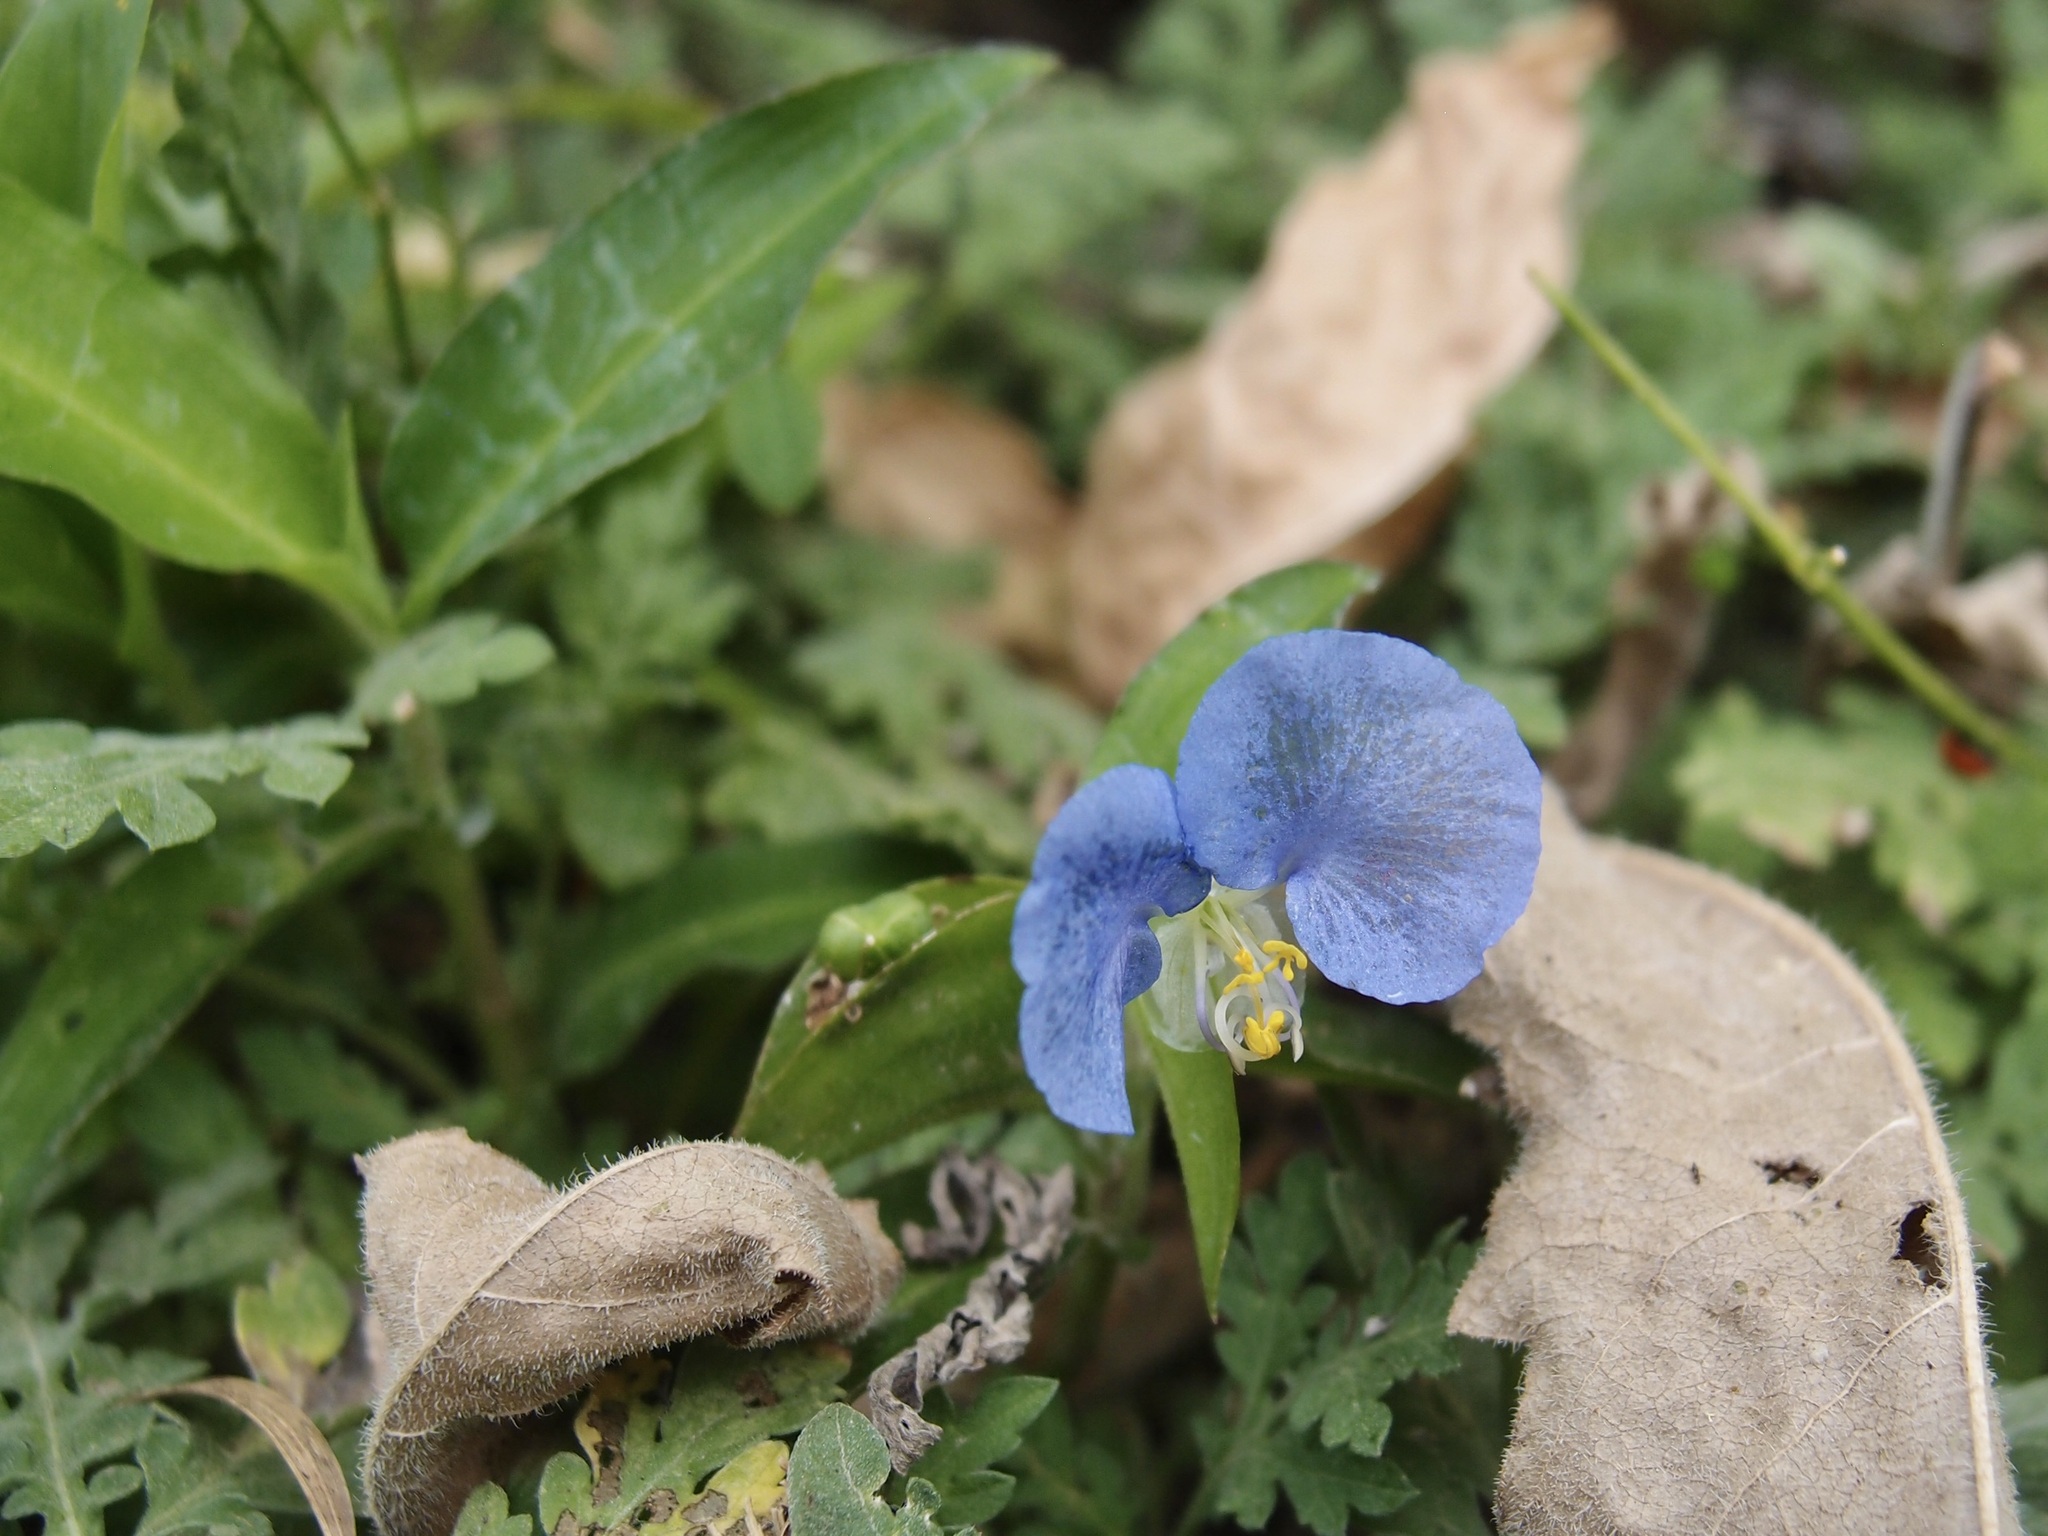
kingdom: Plantae
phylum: Tracheophyta
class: Liliopsida
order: Commelinales
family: Commelinaceae
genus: Commelina
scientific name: Commelina erecta
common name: Blousel blommetjie
